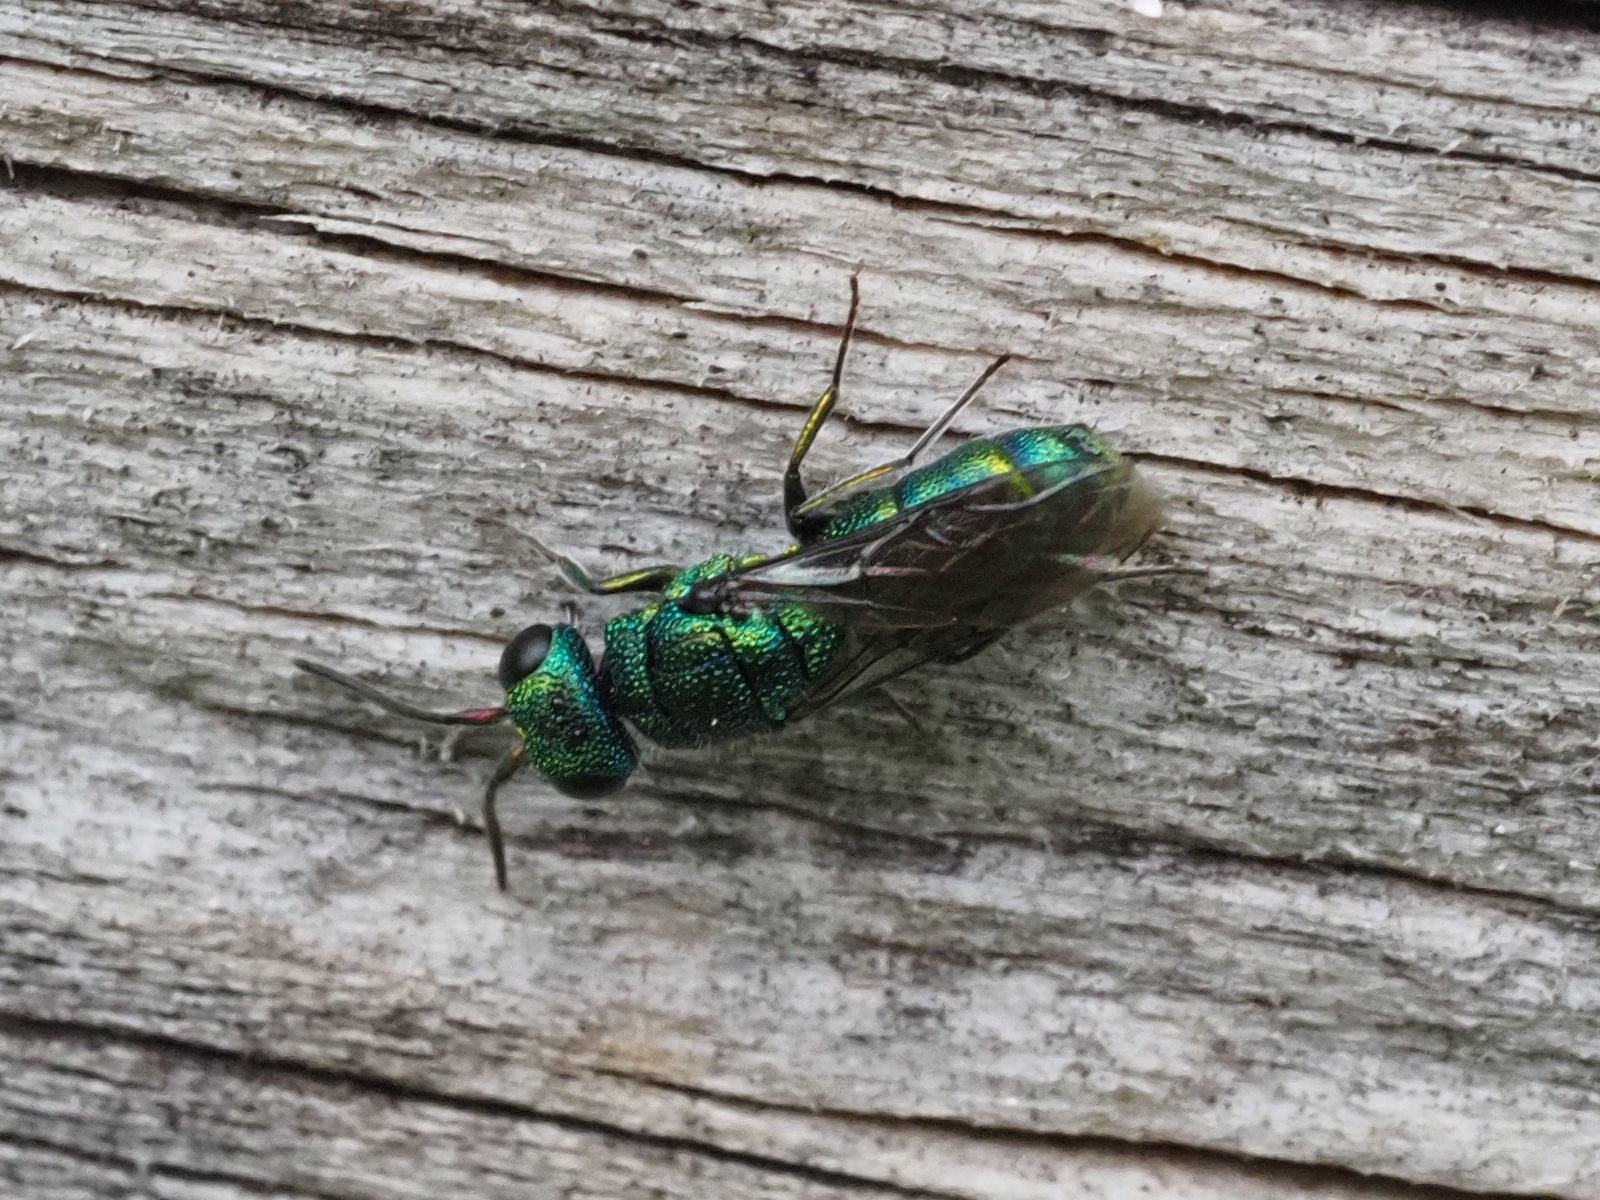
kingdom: Animalia
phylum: Arthropoda
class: Insecta
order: Hymenoptera
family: Pompilidae
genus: Pepsis
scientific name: Pepsis cyanea
